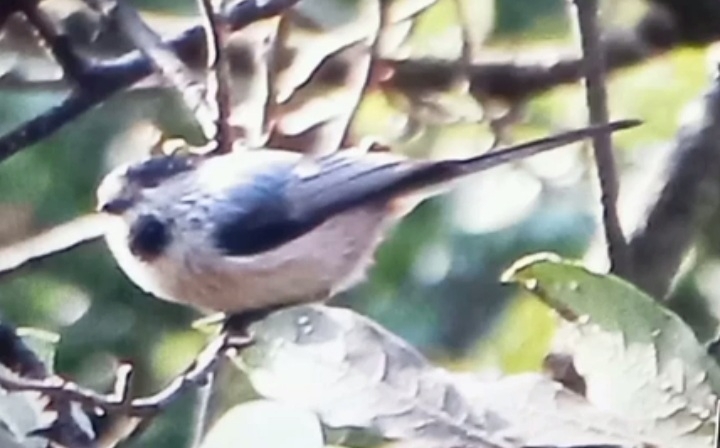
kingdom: Animalia
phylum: Chordata
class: Aves
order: Passeriformes
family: Aegithalidae
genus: Aegithalos
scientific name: Aegithalos caudatus
